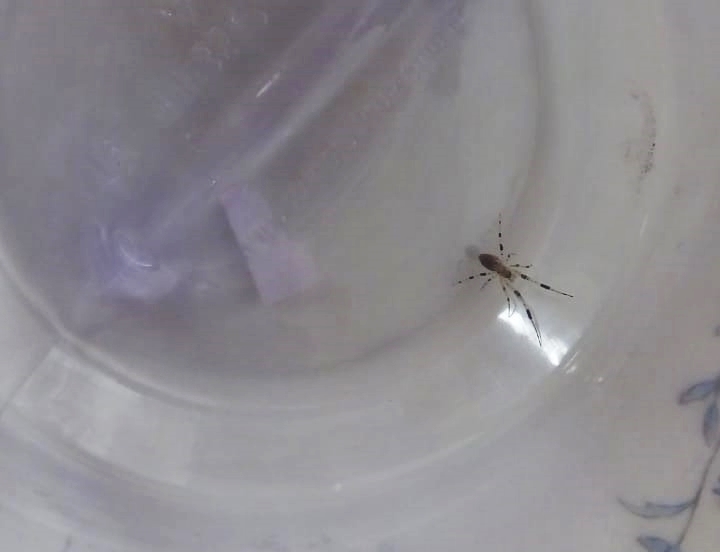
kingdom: Animalia
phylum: Arthropoda
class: Arachnida
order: Araneae
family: Uloboridae
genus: Zosis
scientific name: Zosis geniculata
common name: Hackled orb weavers
